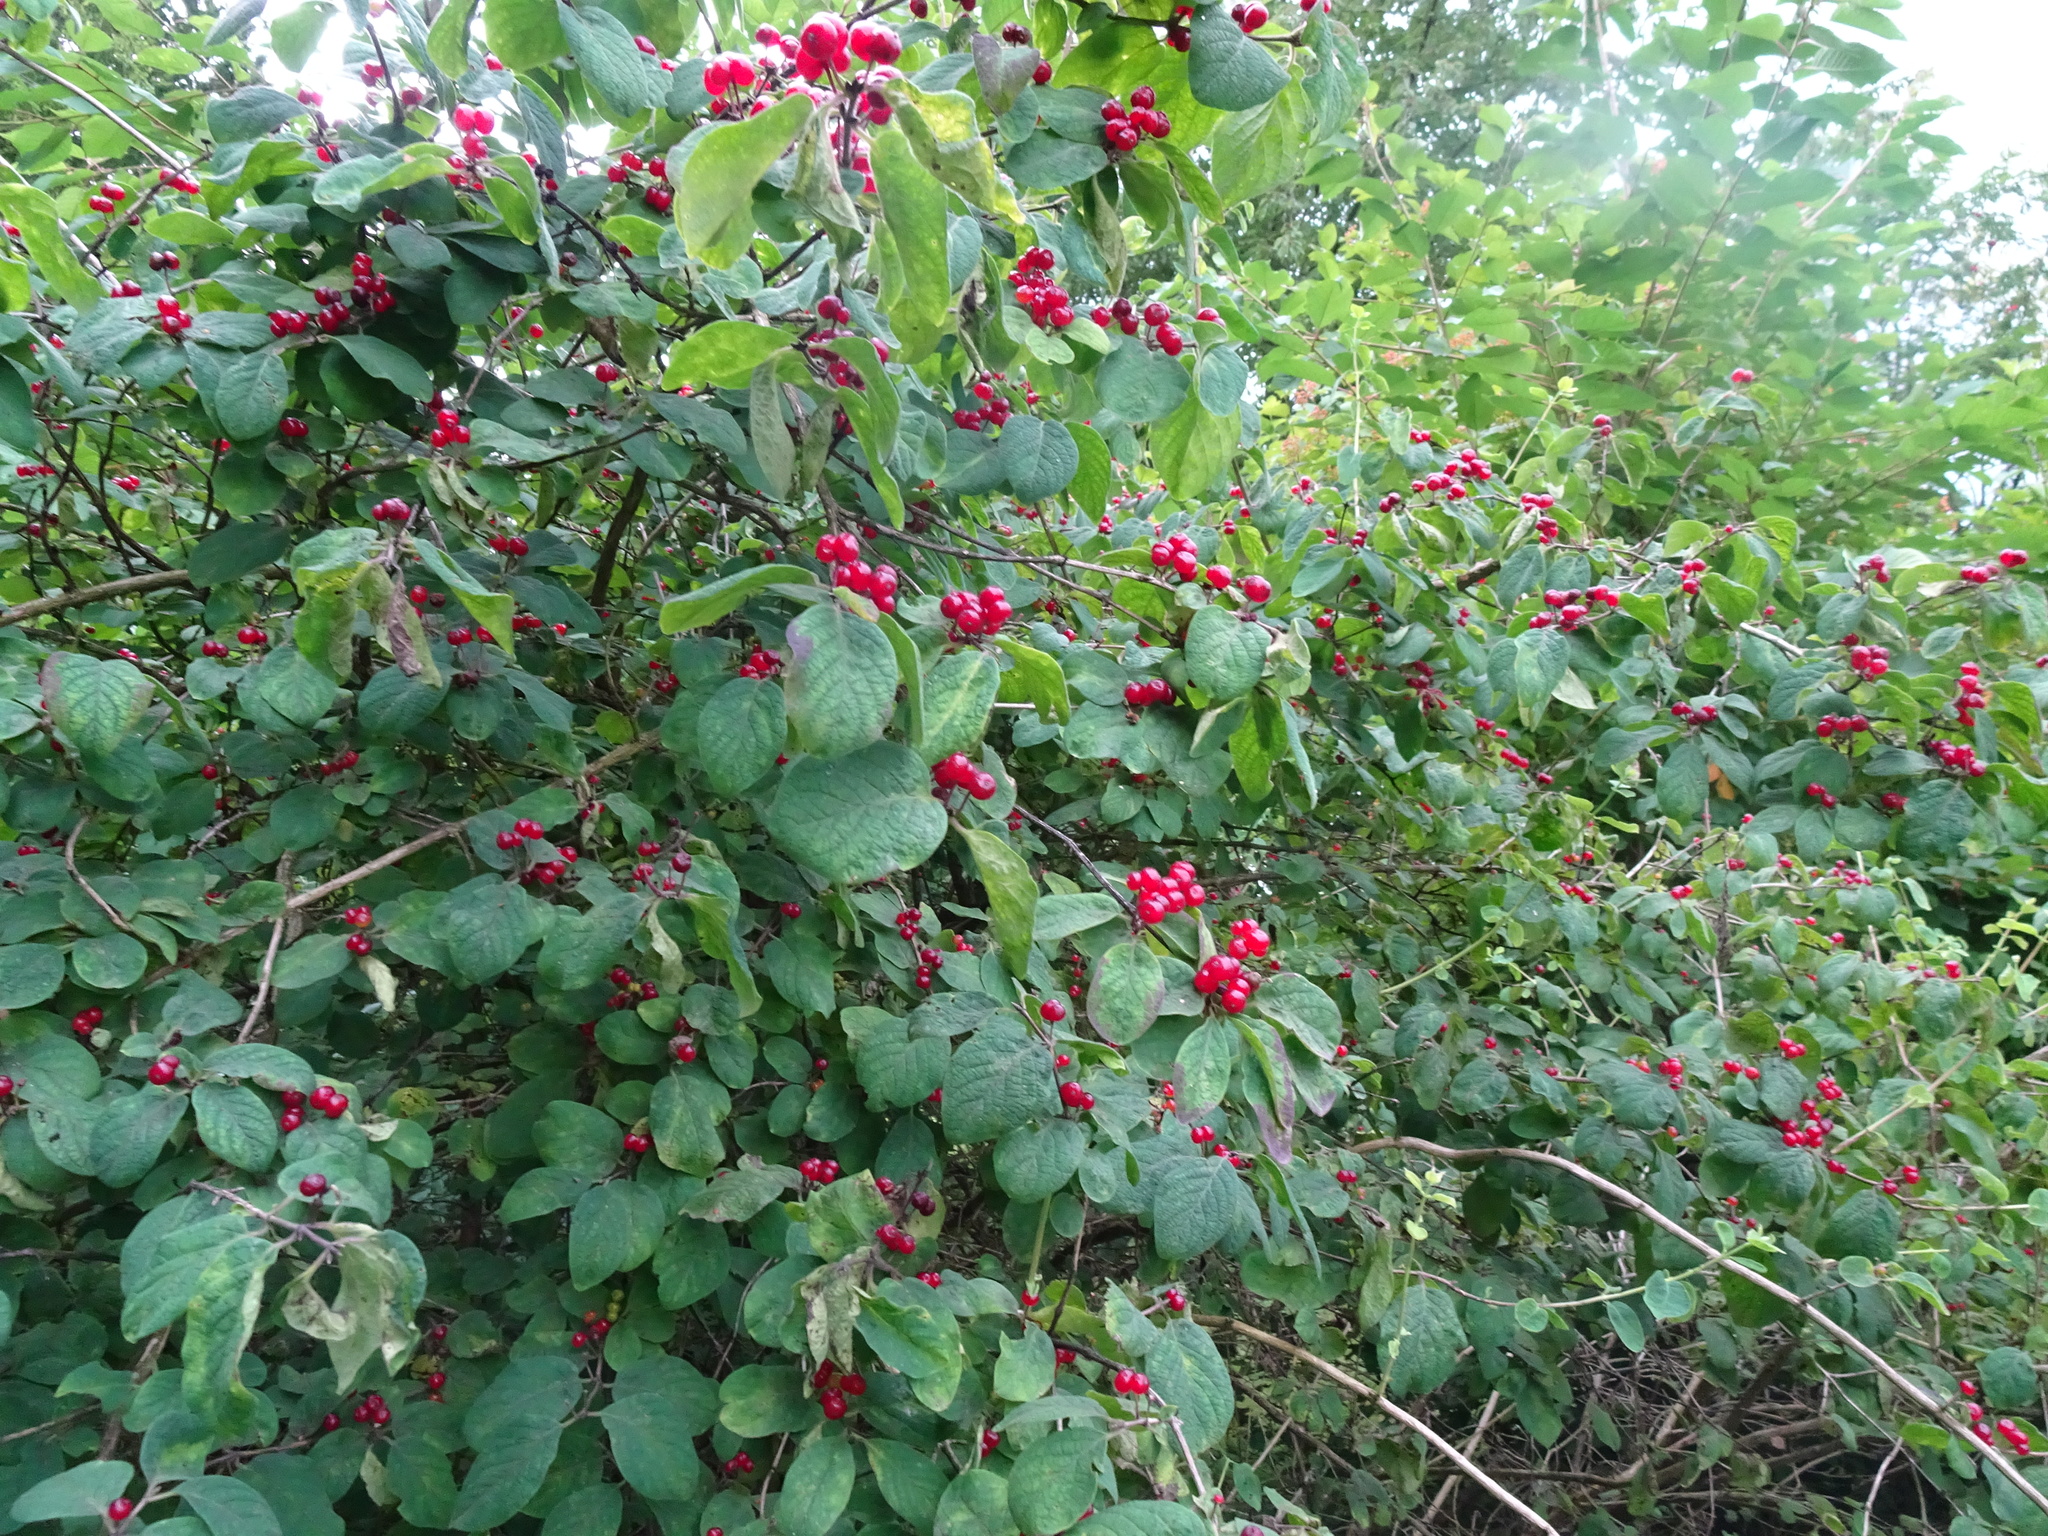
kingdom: Plantae
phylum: Tracheophyta
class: Magnoliopsida
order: Dipsacales
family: Caprifoliaceae
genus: Lonicera
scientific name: Lonicera xylosteum
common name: Fly honeysuckle
